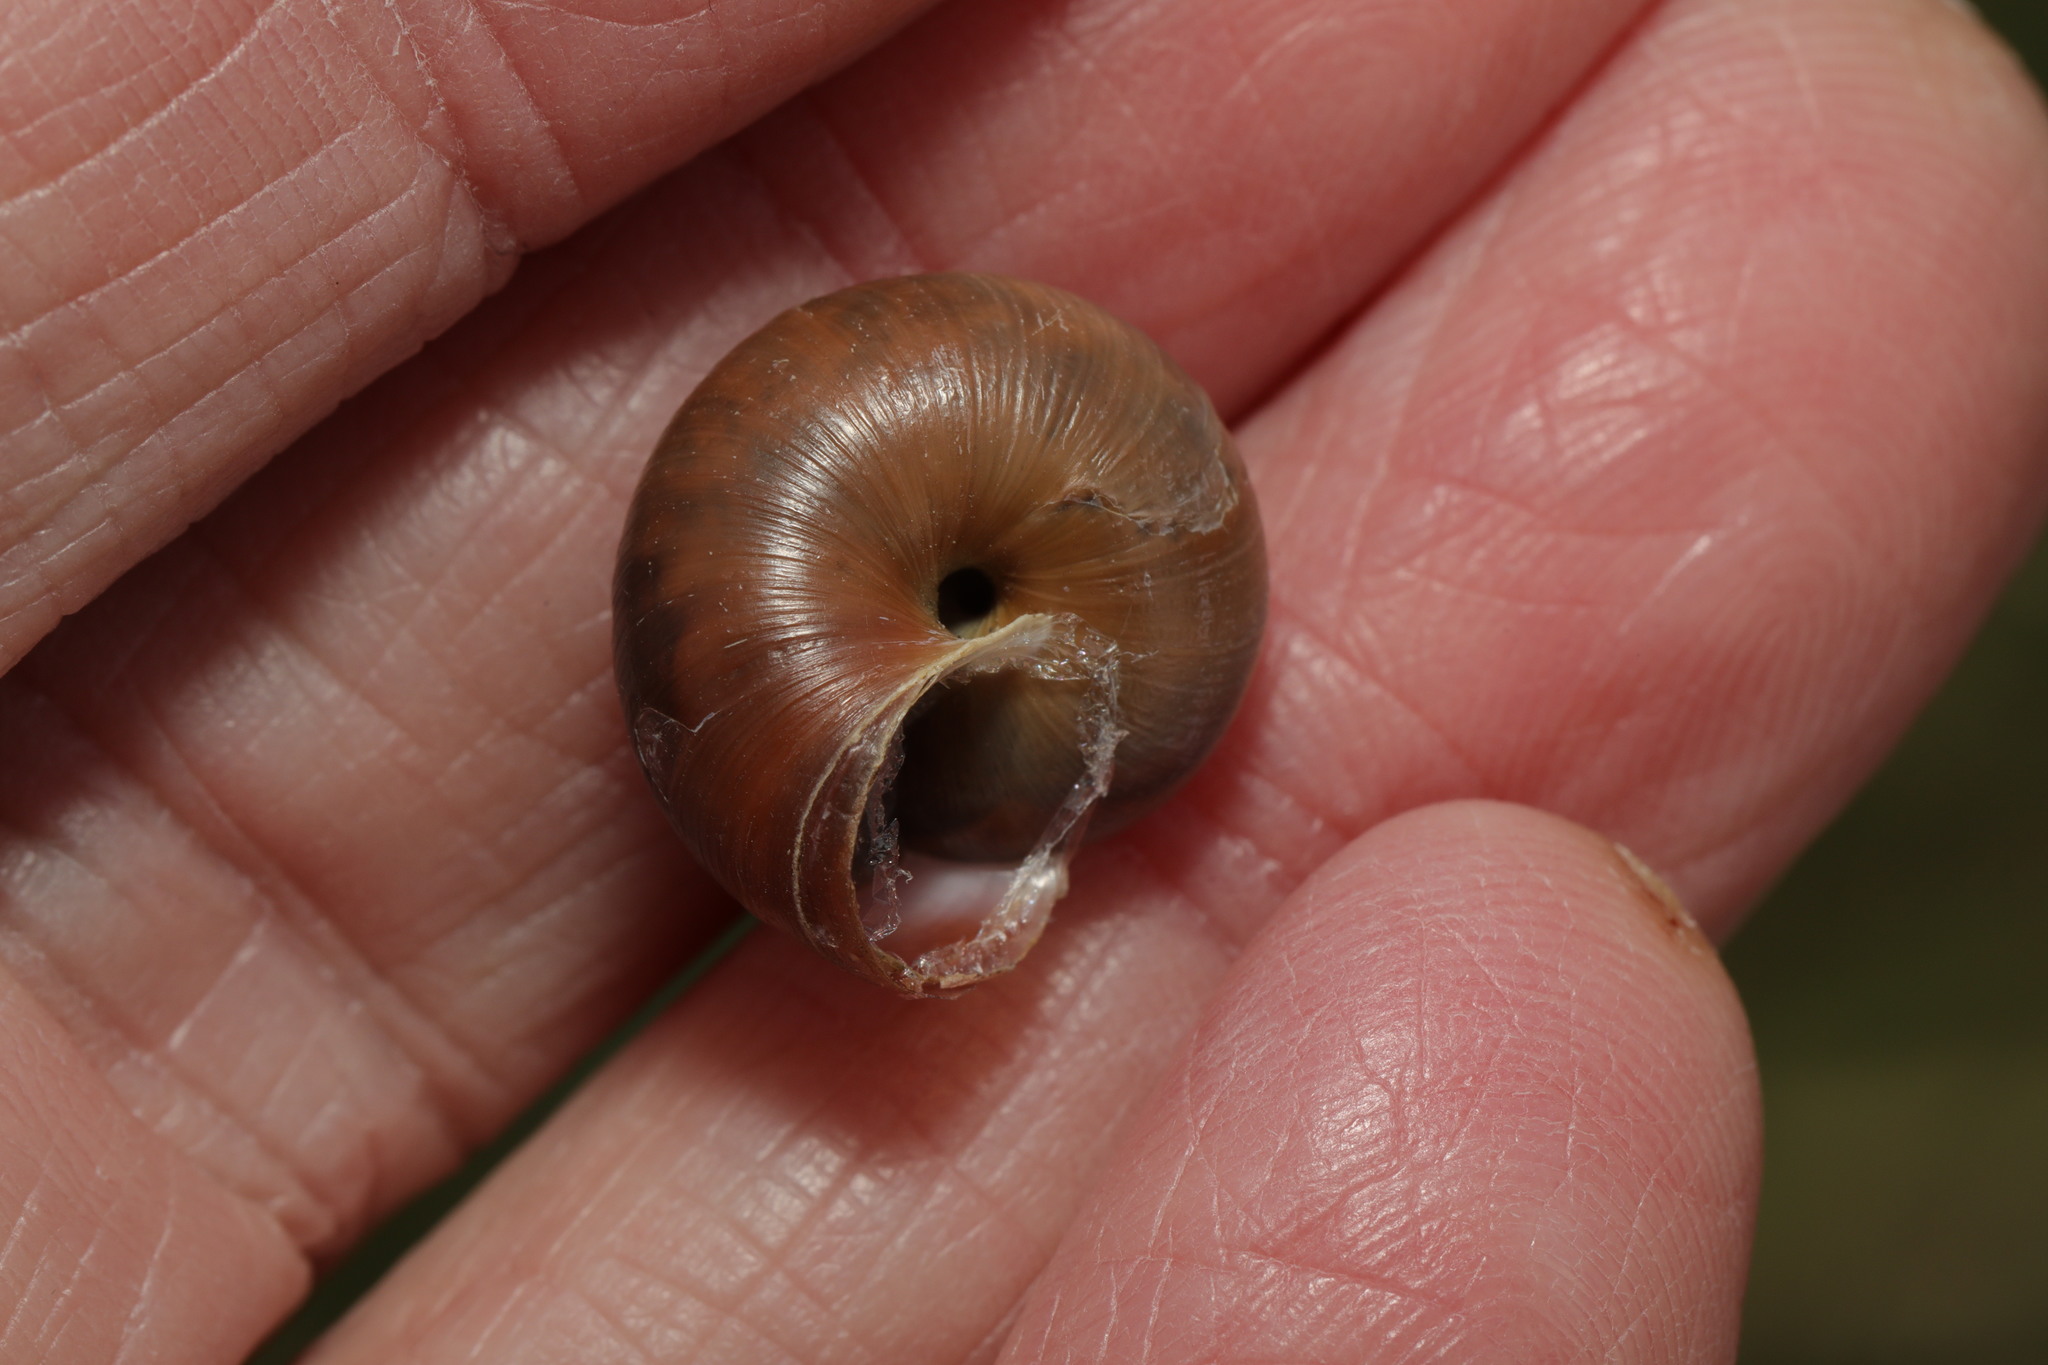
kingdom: Animalia
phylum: Mollusca
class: Gastropoda
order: Stylommatophora
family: Hygromiidae
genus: Monacha
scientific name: Monacha cantiana
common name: Kentish snail
